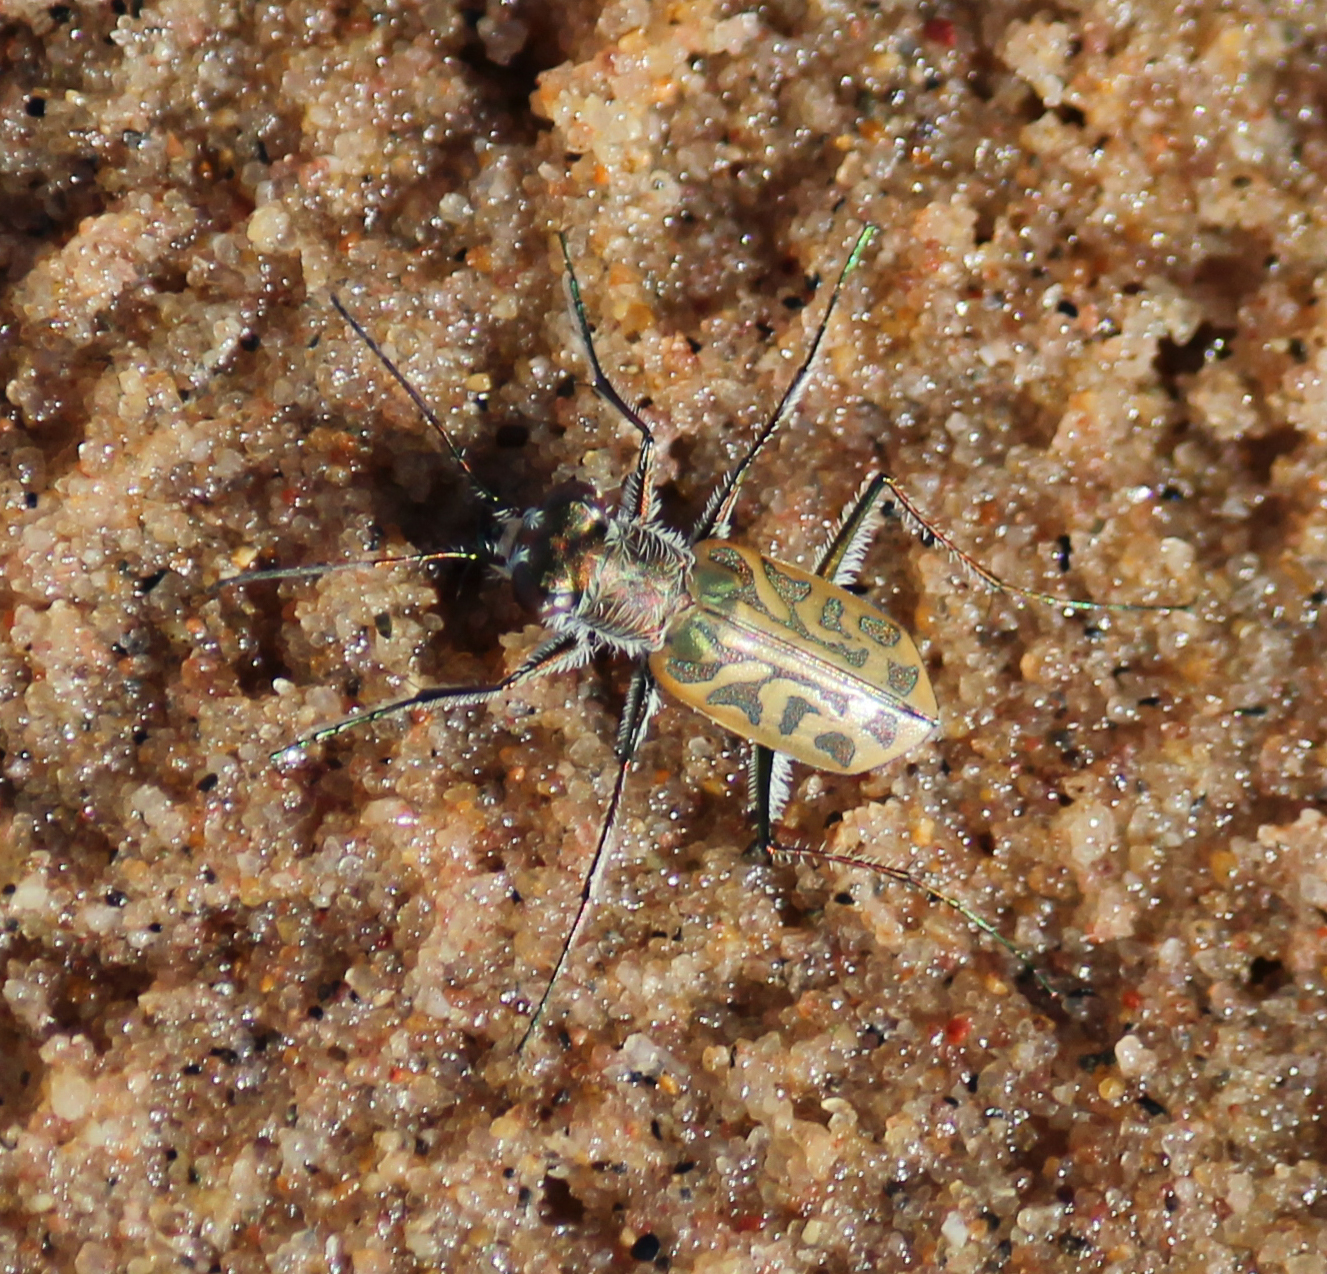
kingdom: Animalia
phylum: Arthropoda
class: Insecta
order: Coleoptera
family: Carabidae
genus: Habrodera
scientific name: Habrodera nilotica
